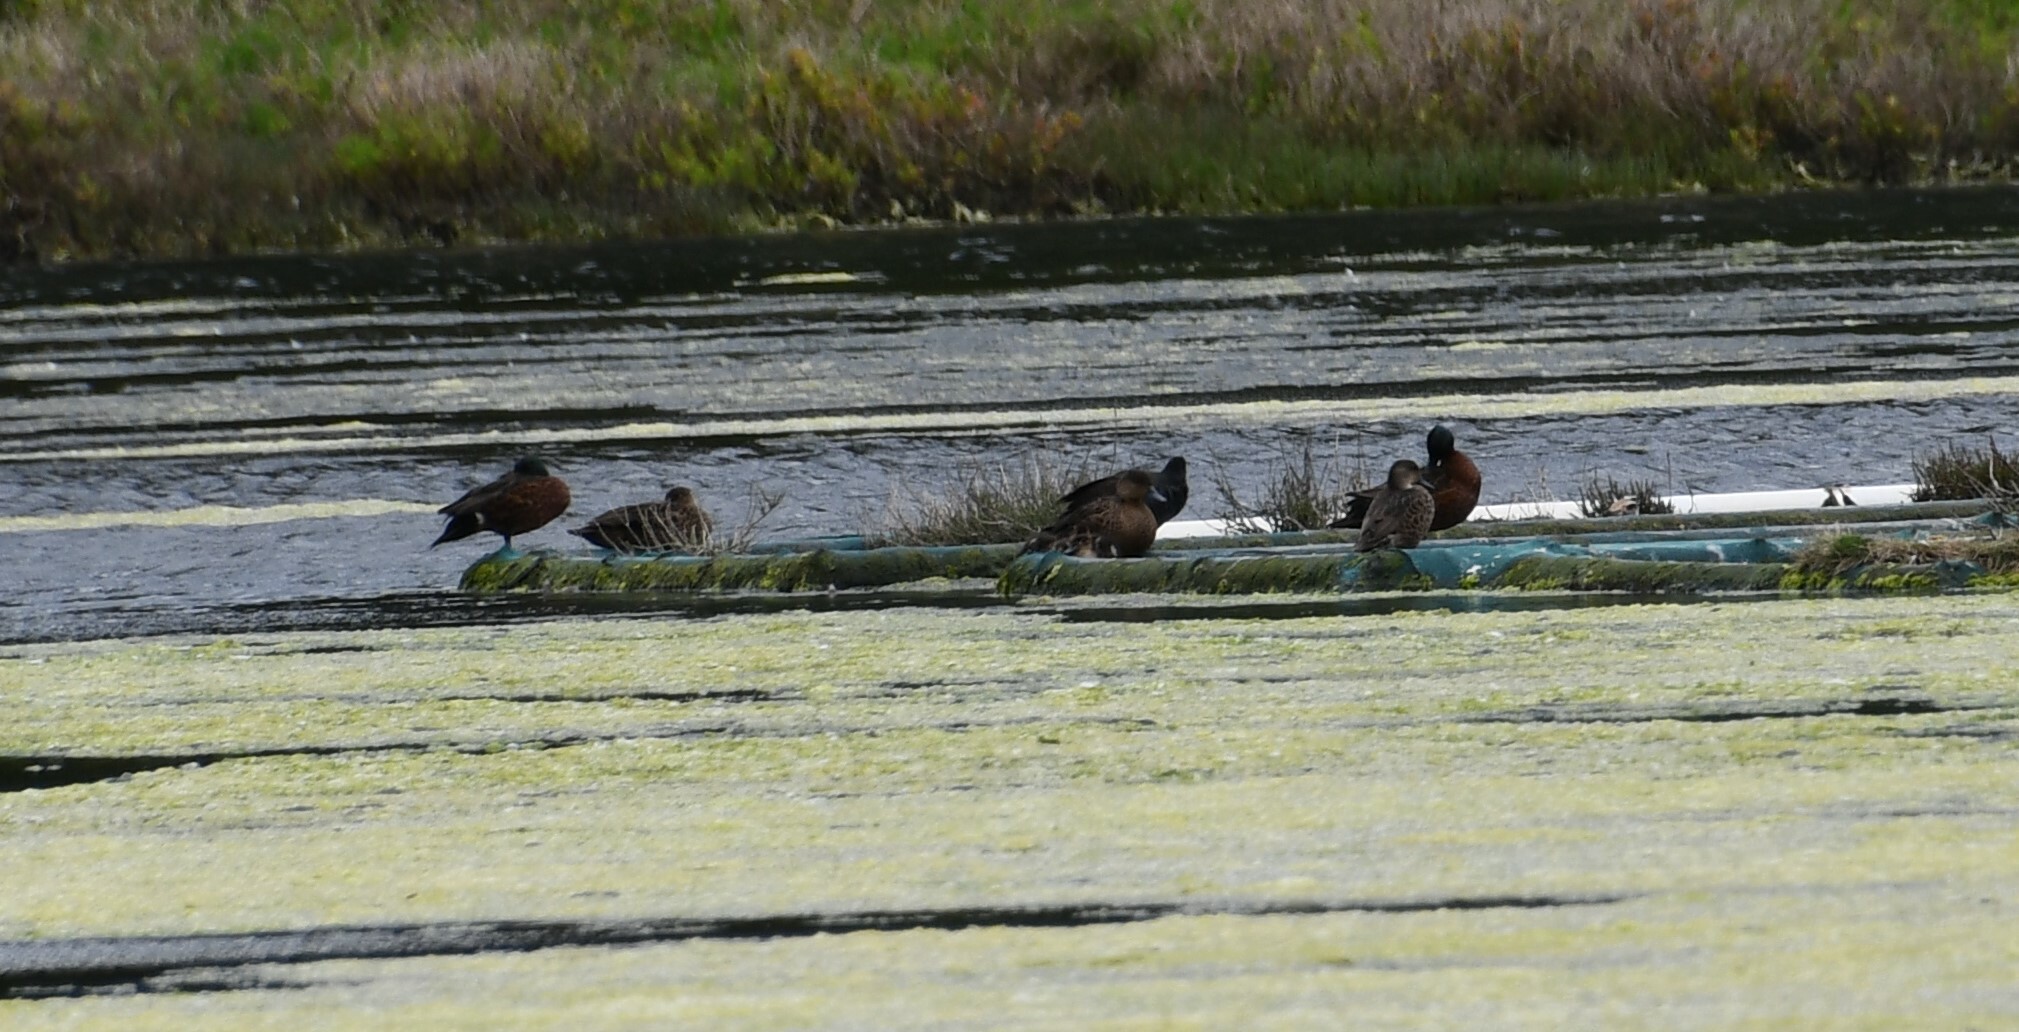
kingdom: Animalia
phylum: Chordata
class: Aves
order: Anseriformes
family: Anatidae
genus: Anas
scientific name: Anas castanea
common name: Chestnut teal
